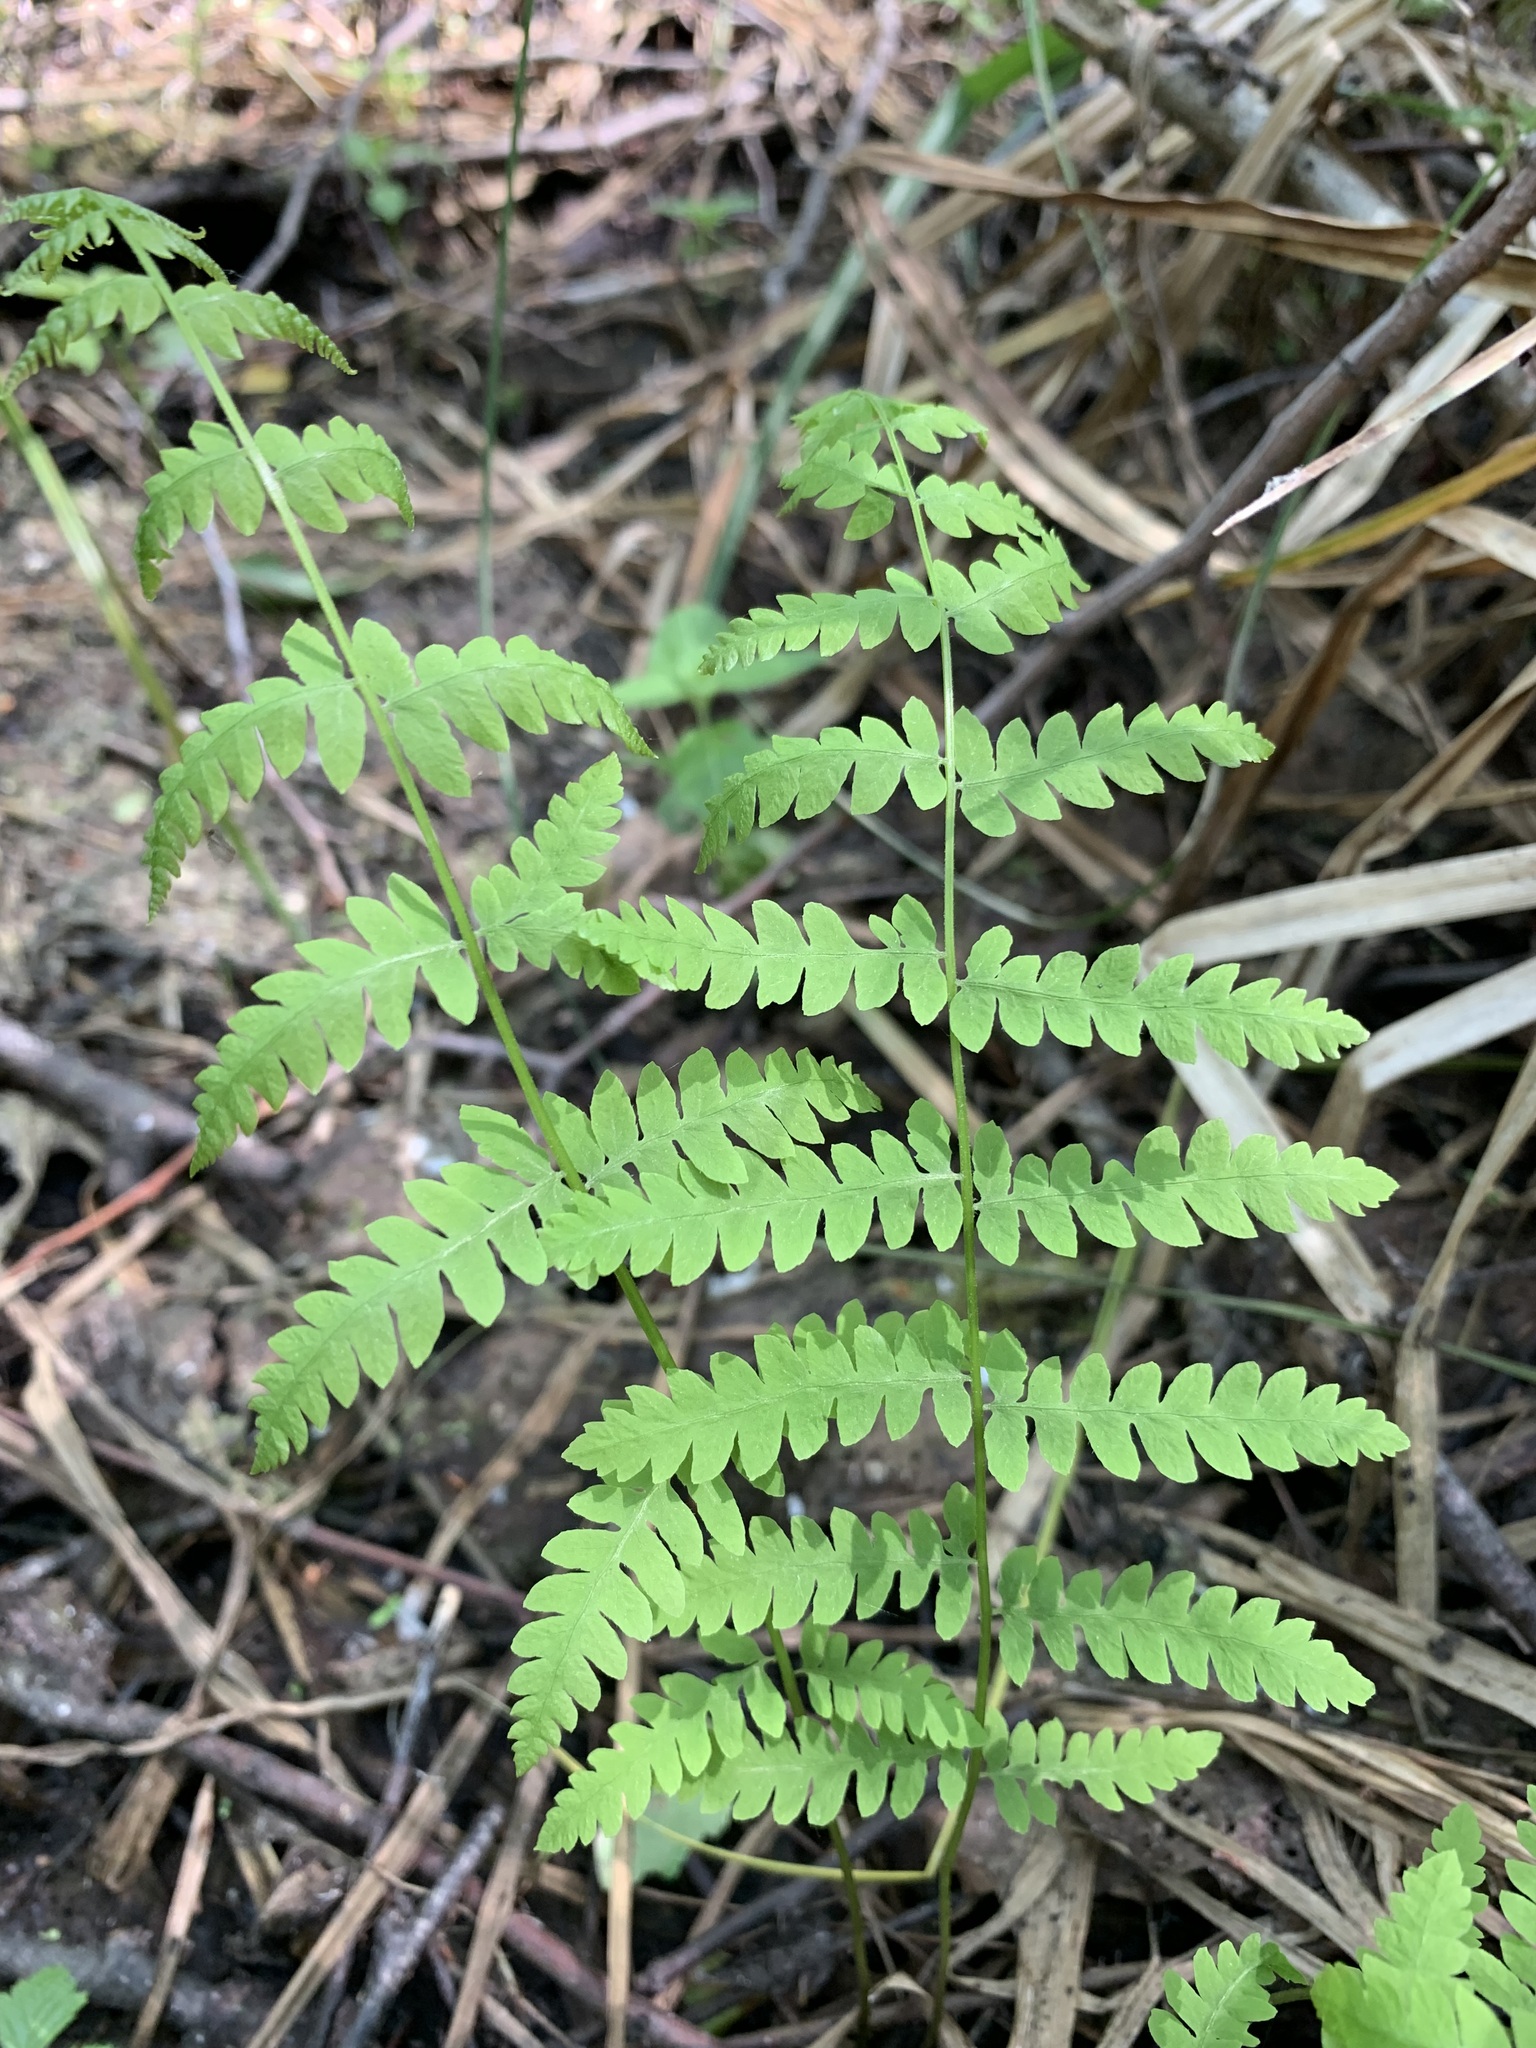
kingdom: Plantae
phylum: Tracheophyta
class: Polypodiopsida
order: Polypodiales
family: Thelypteridaceae
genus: Thelypteris
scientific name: Thelypteris palustris
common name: Marsh fern
